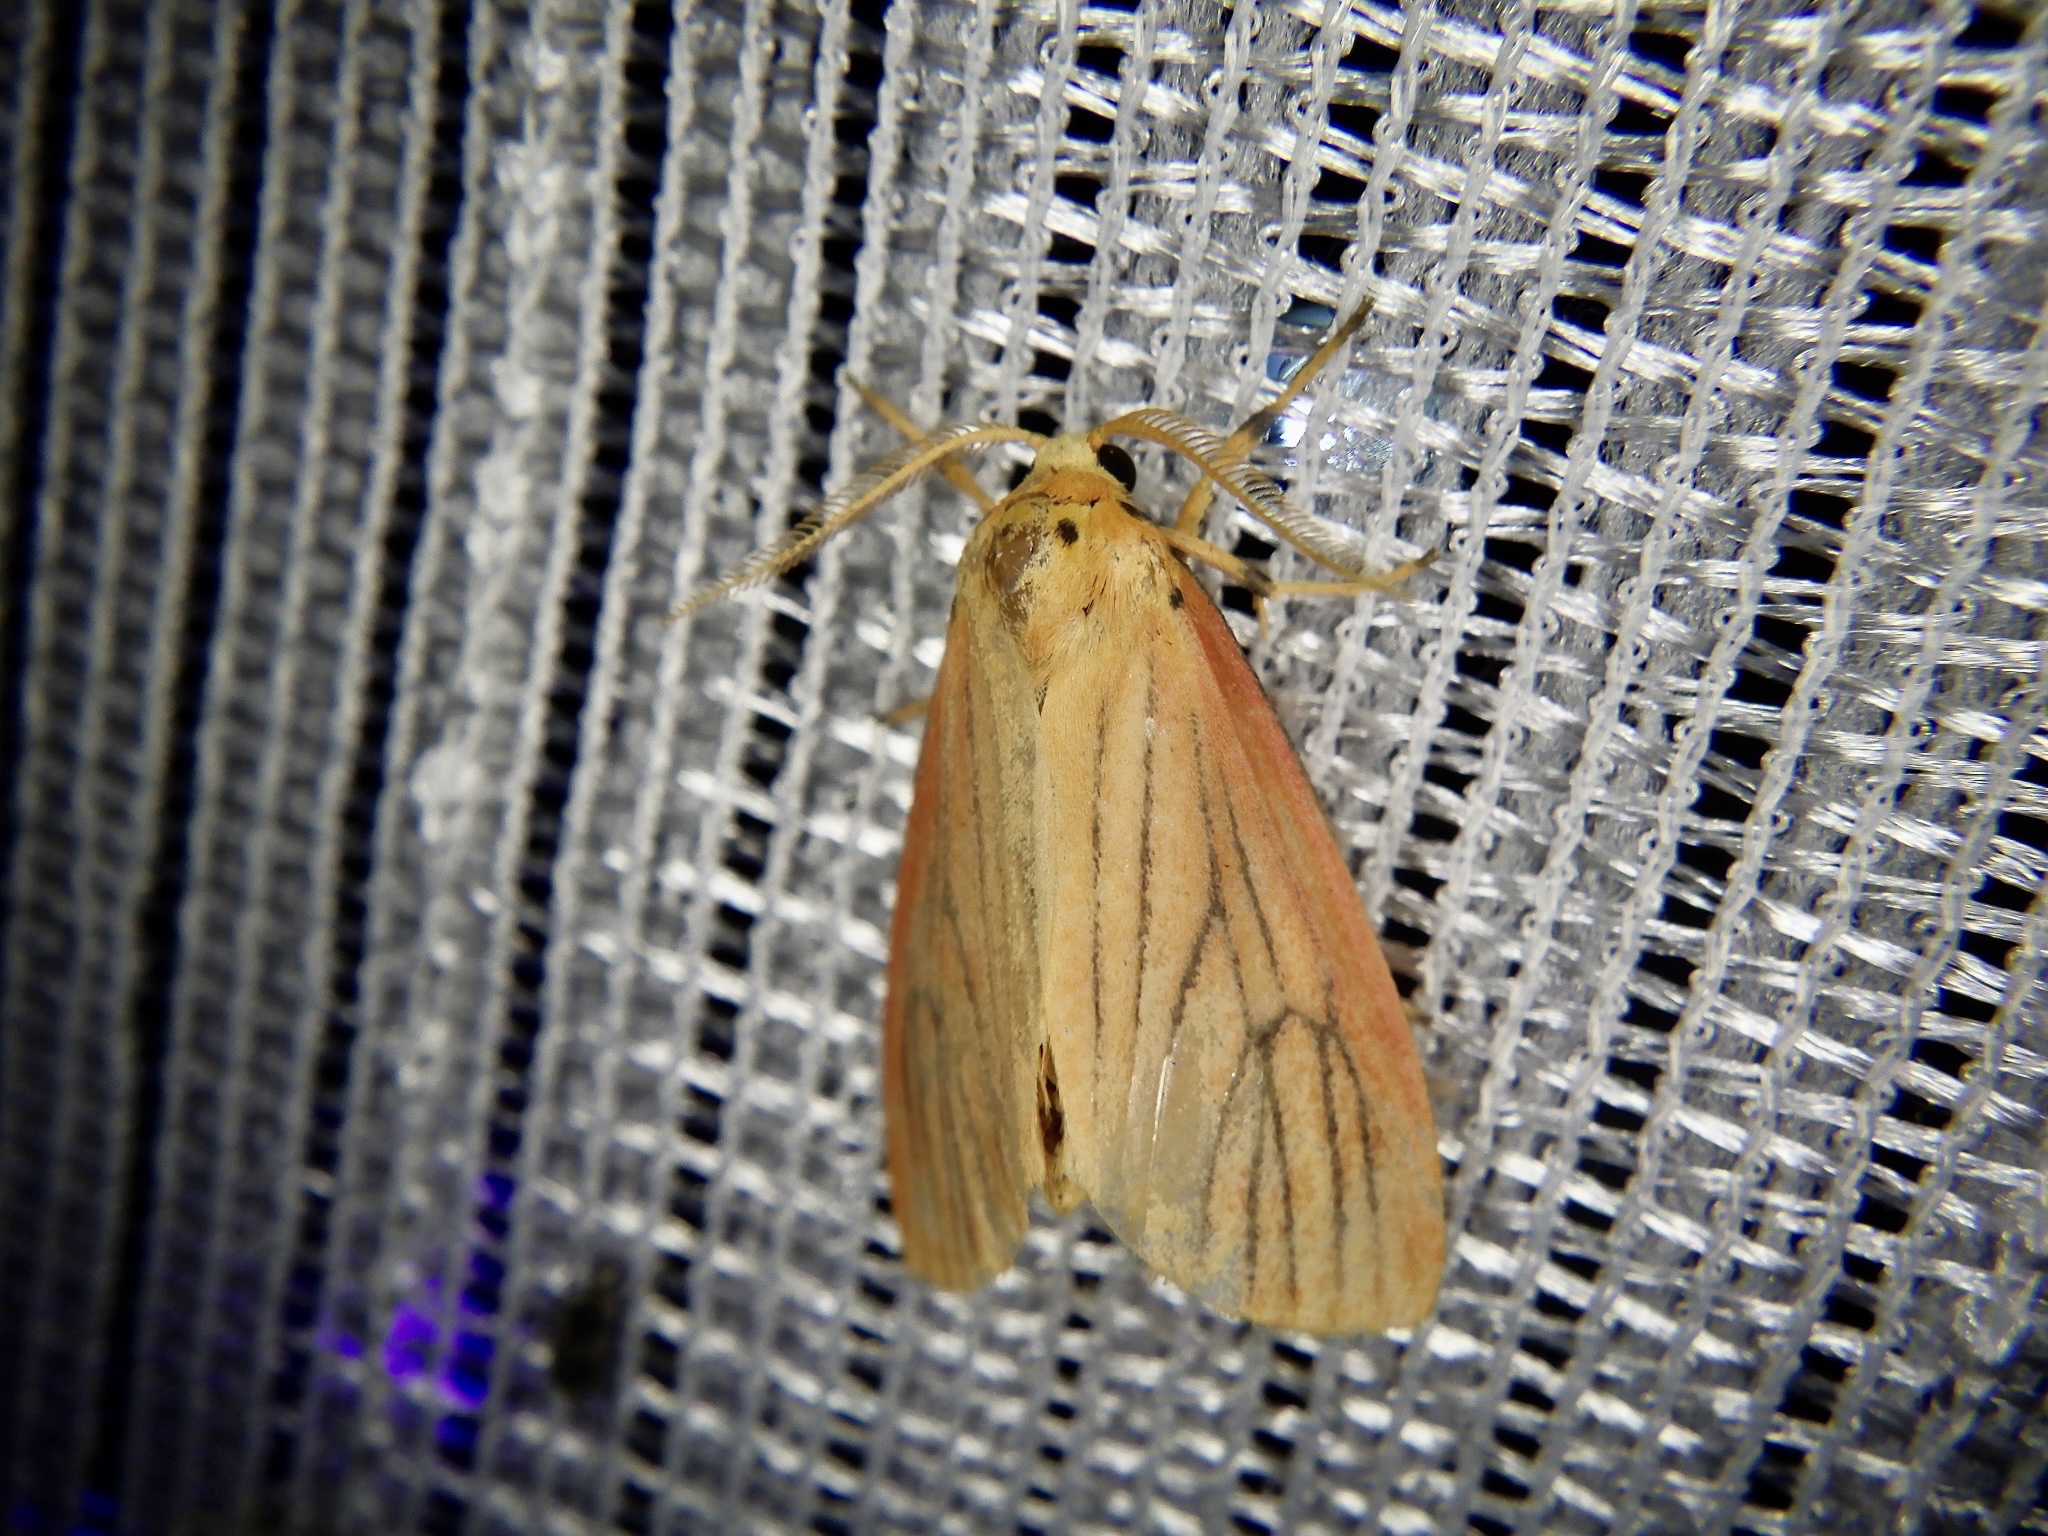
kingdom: Animalia
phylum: Arthropoda
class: Insecta
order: Lepidoptera
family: Erebidae
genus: Melanaema
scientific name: Melanaema venata
